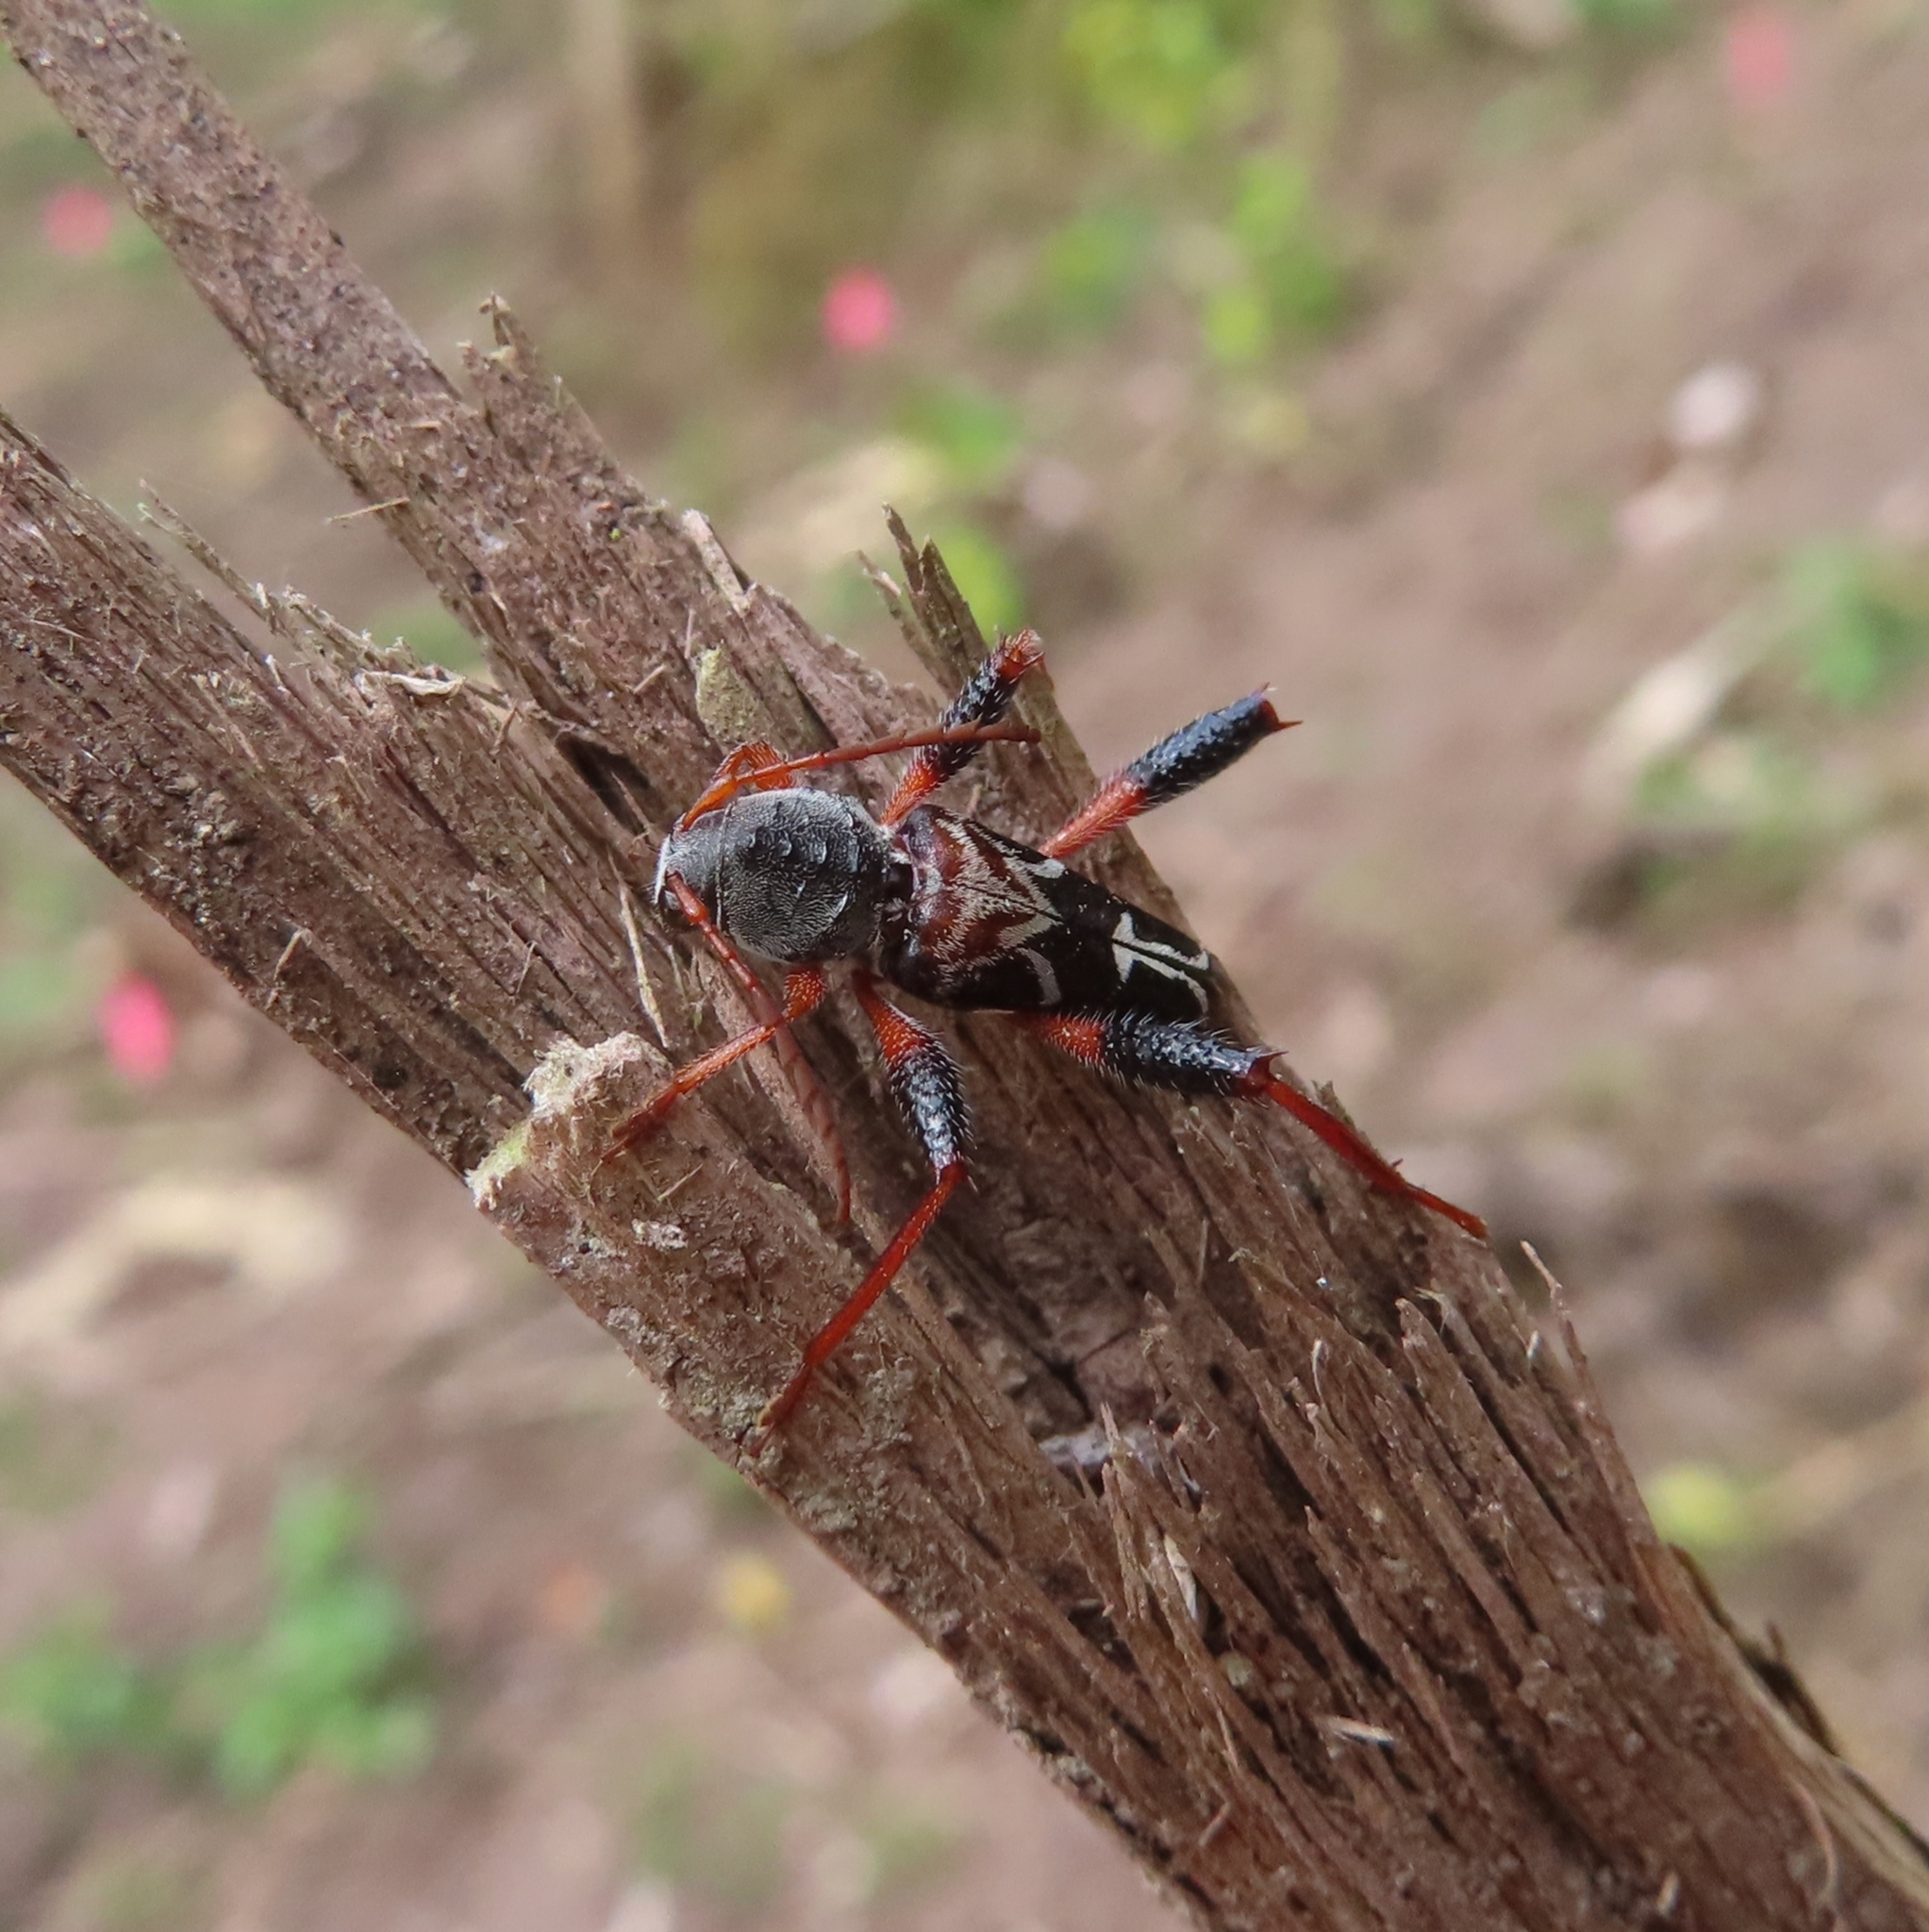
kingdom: Animalia
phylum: Arthropoda
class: Insecta
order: Coleoptera
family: Cerambycidae
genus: Neoclytus
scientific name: Neoclytus araneiformis
